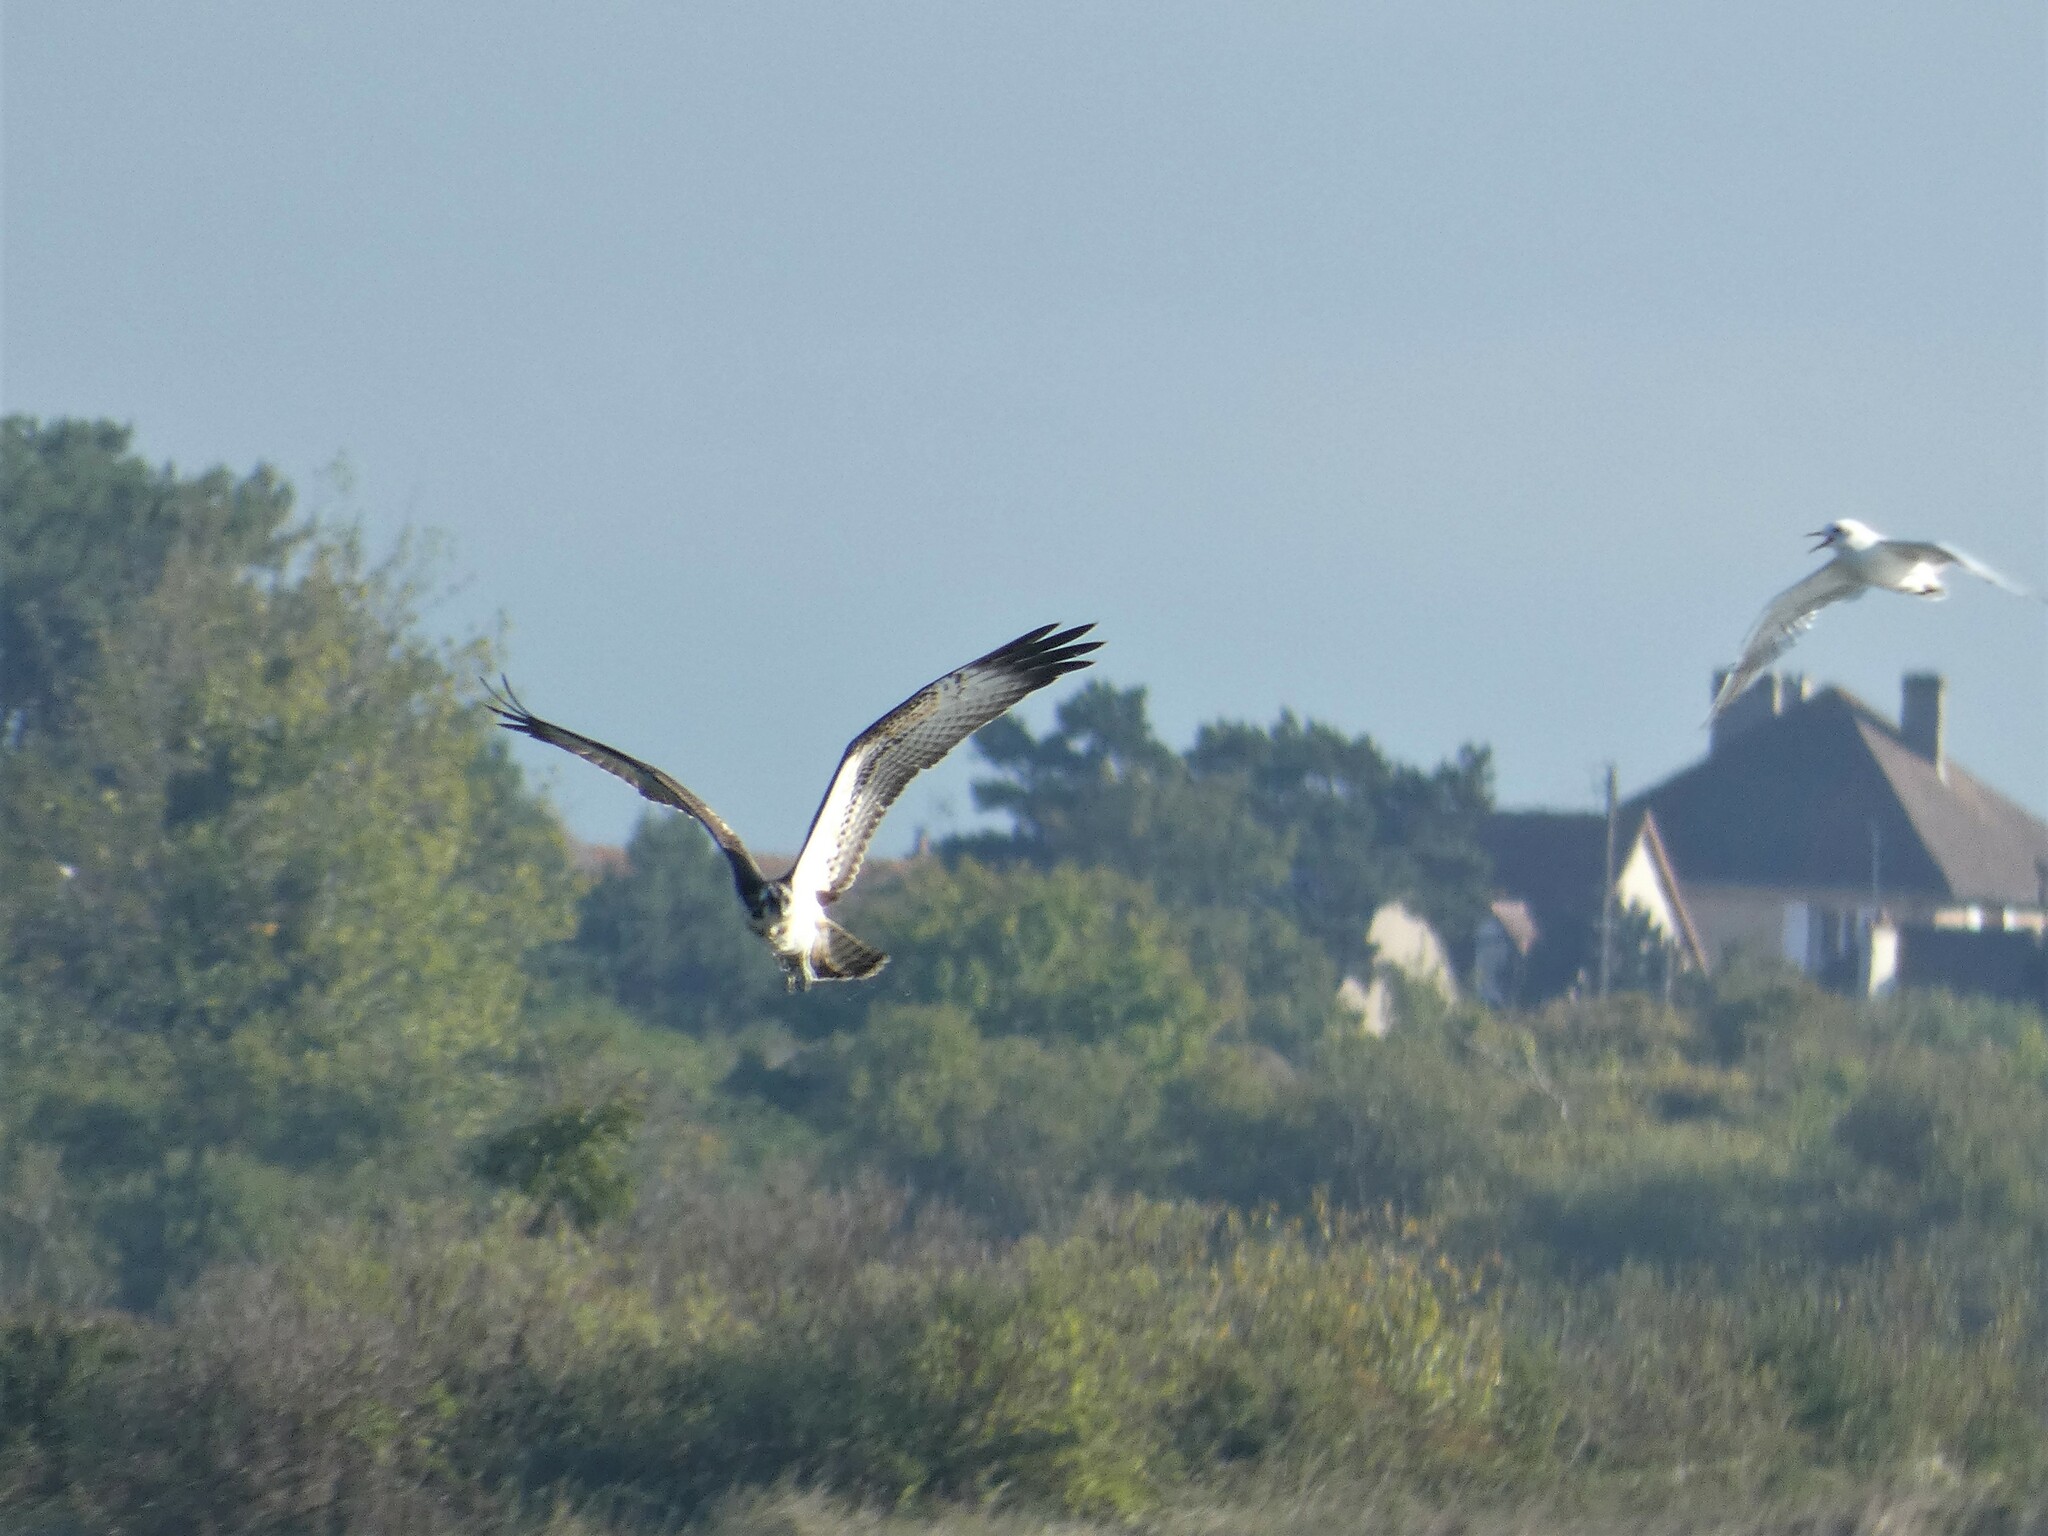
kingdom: Animalia
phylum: Chordata
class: Aves
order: Accipitriformes
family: Pandionidae
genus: Pandion
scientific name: Pandion haliaetus
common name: Osprey
